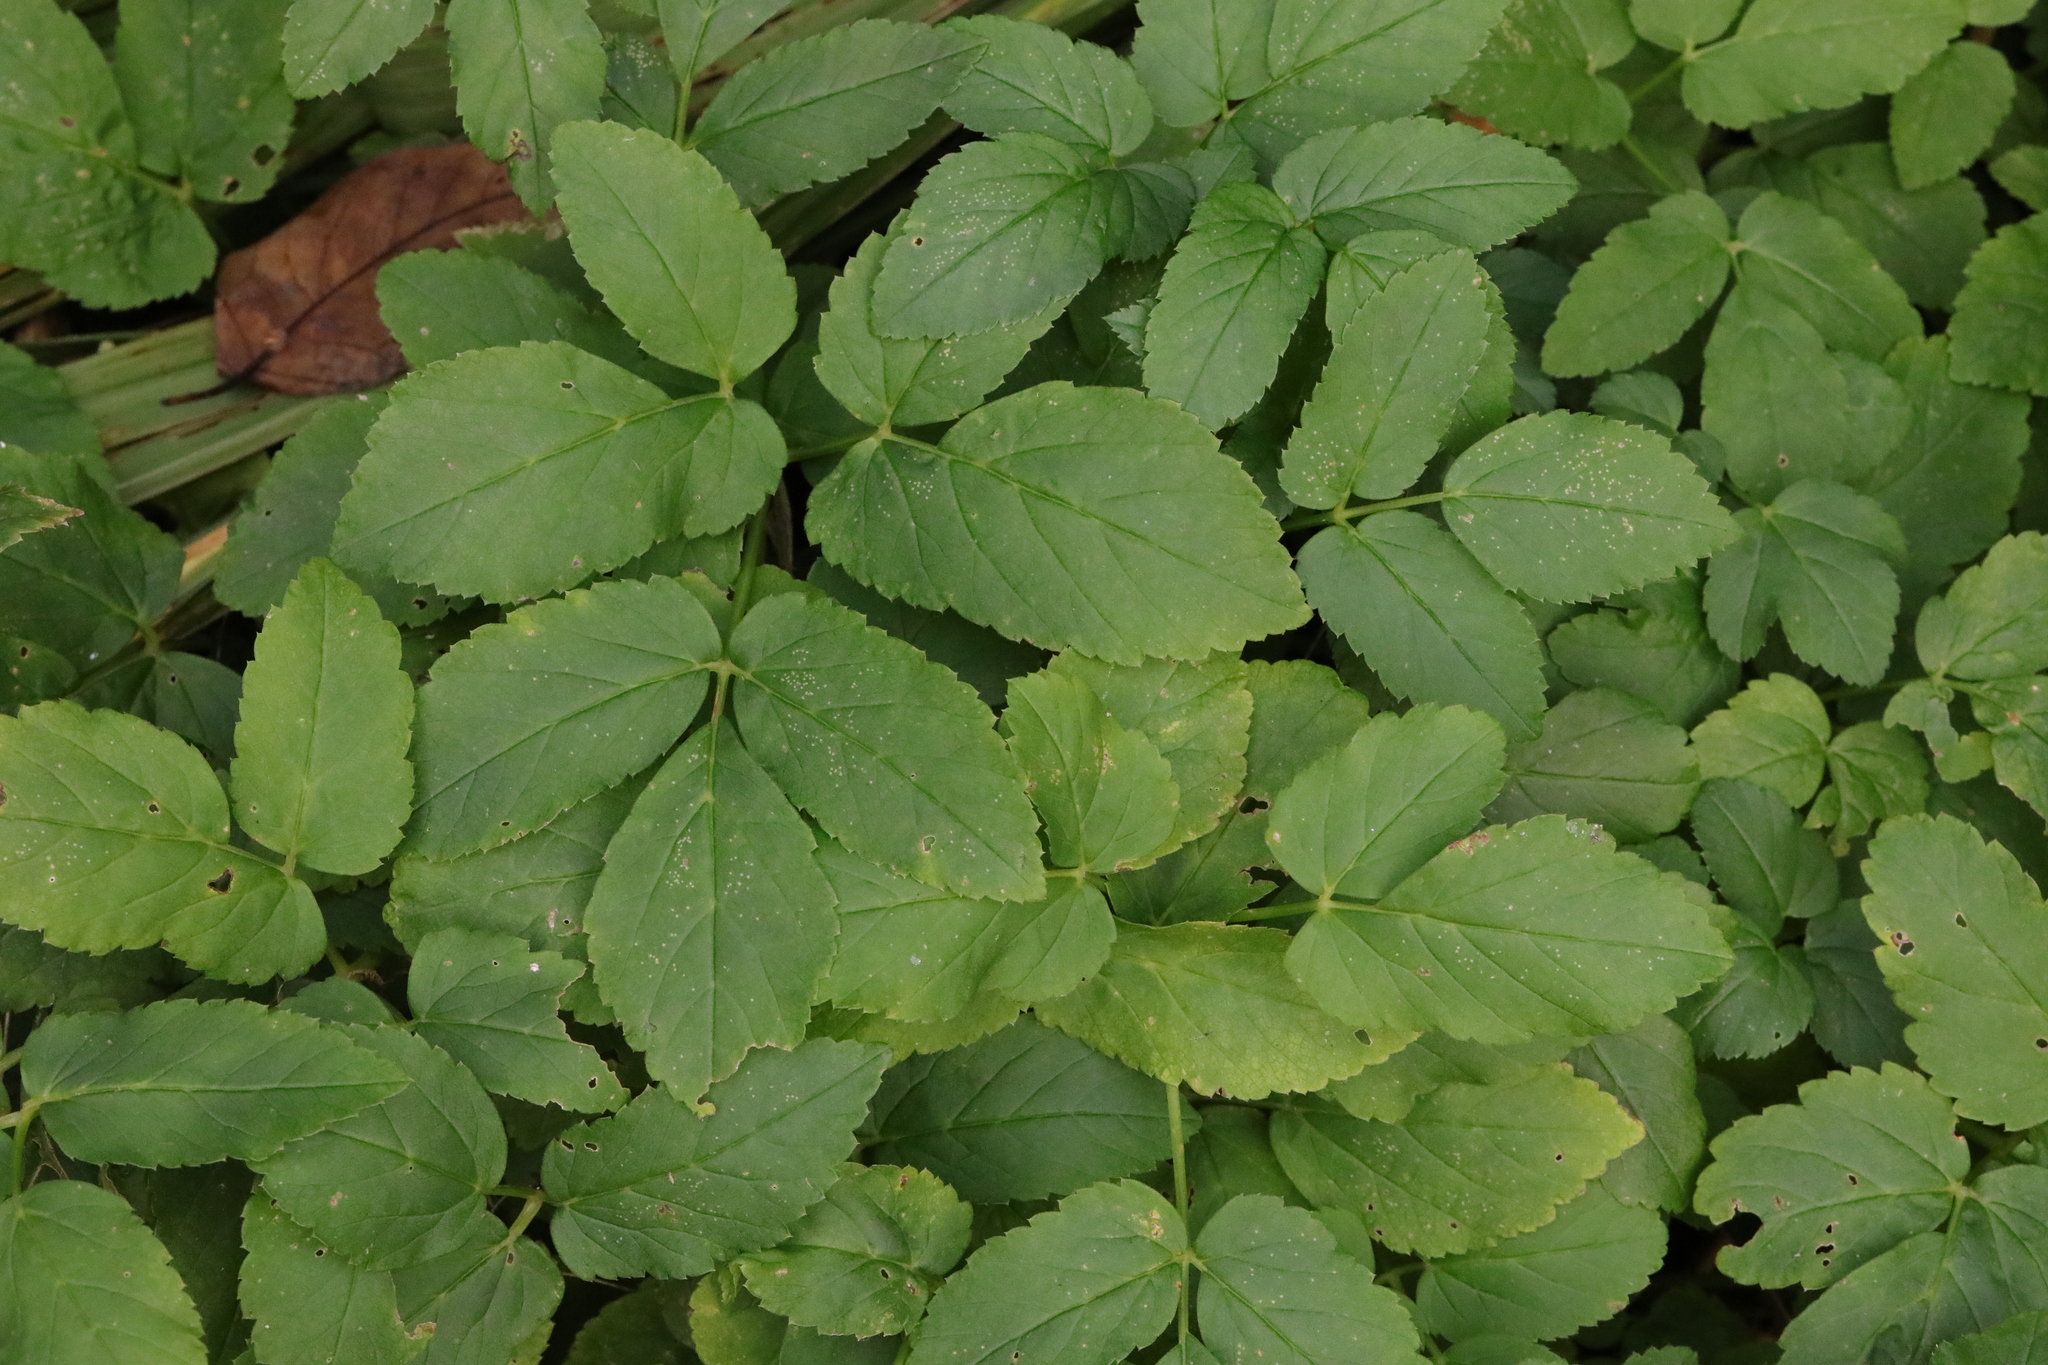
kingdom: Plantae
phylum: Tracheophyta
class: Magnoliopsida
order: Apiales
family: Apiaceae
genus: Aegopodium
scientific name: Aegopodium podagraria
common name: Ground-elder
